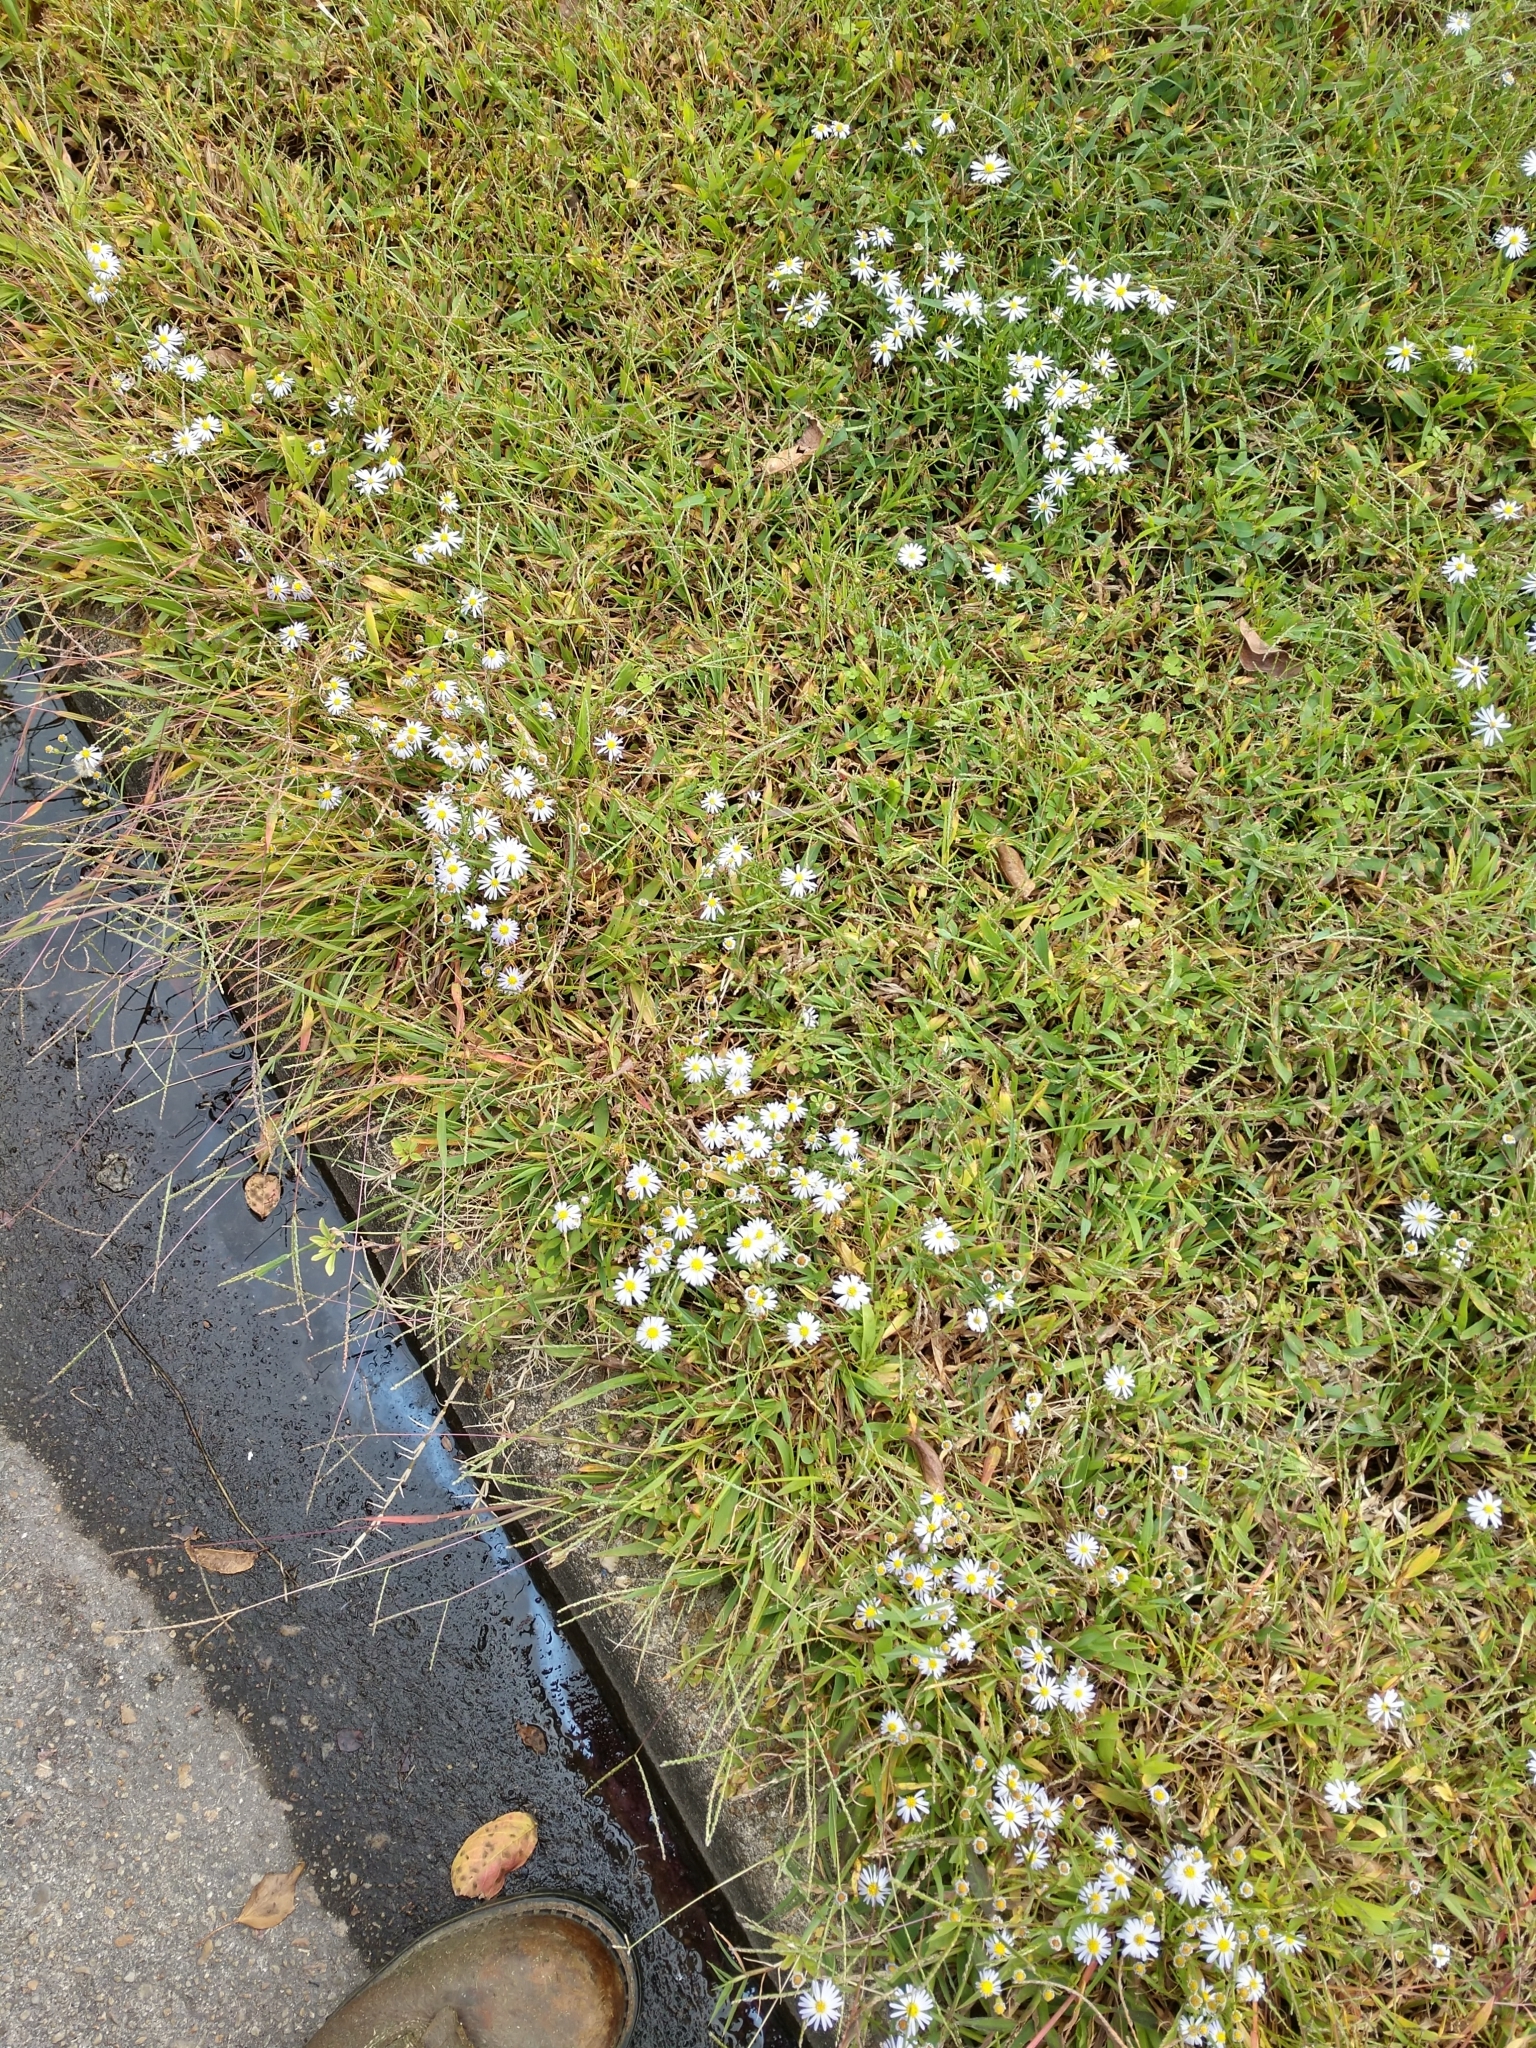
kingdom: Plantae
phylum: Tracheophyta
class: Magnoliopsida
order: Asterales
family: Asteraceae
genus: Symphyotrichum
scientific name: Symphyotrichum subulatum
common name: Annual saltmarsh aster
